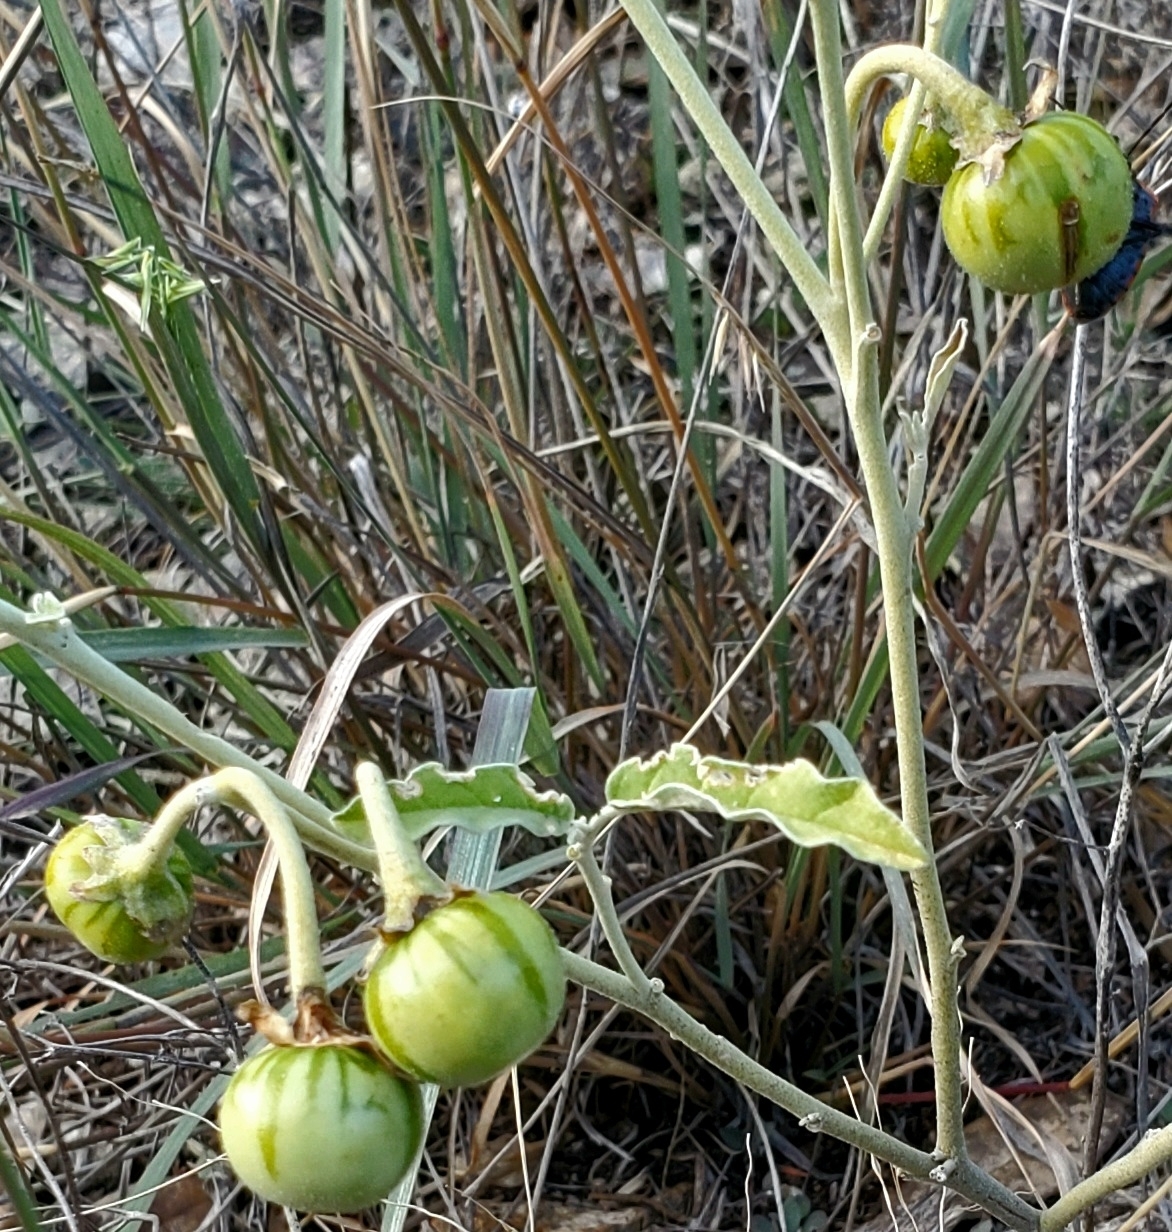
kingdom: Plantae
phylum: Tracheophyta
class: Magnoliopsida
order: Solanales
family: Solanaceae
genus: Solanum
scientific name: Solanum elaeagnifolium
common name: Silverleaf nightshade
